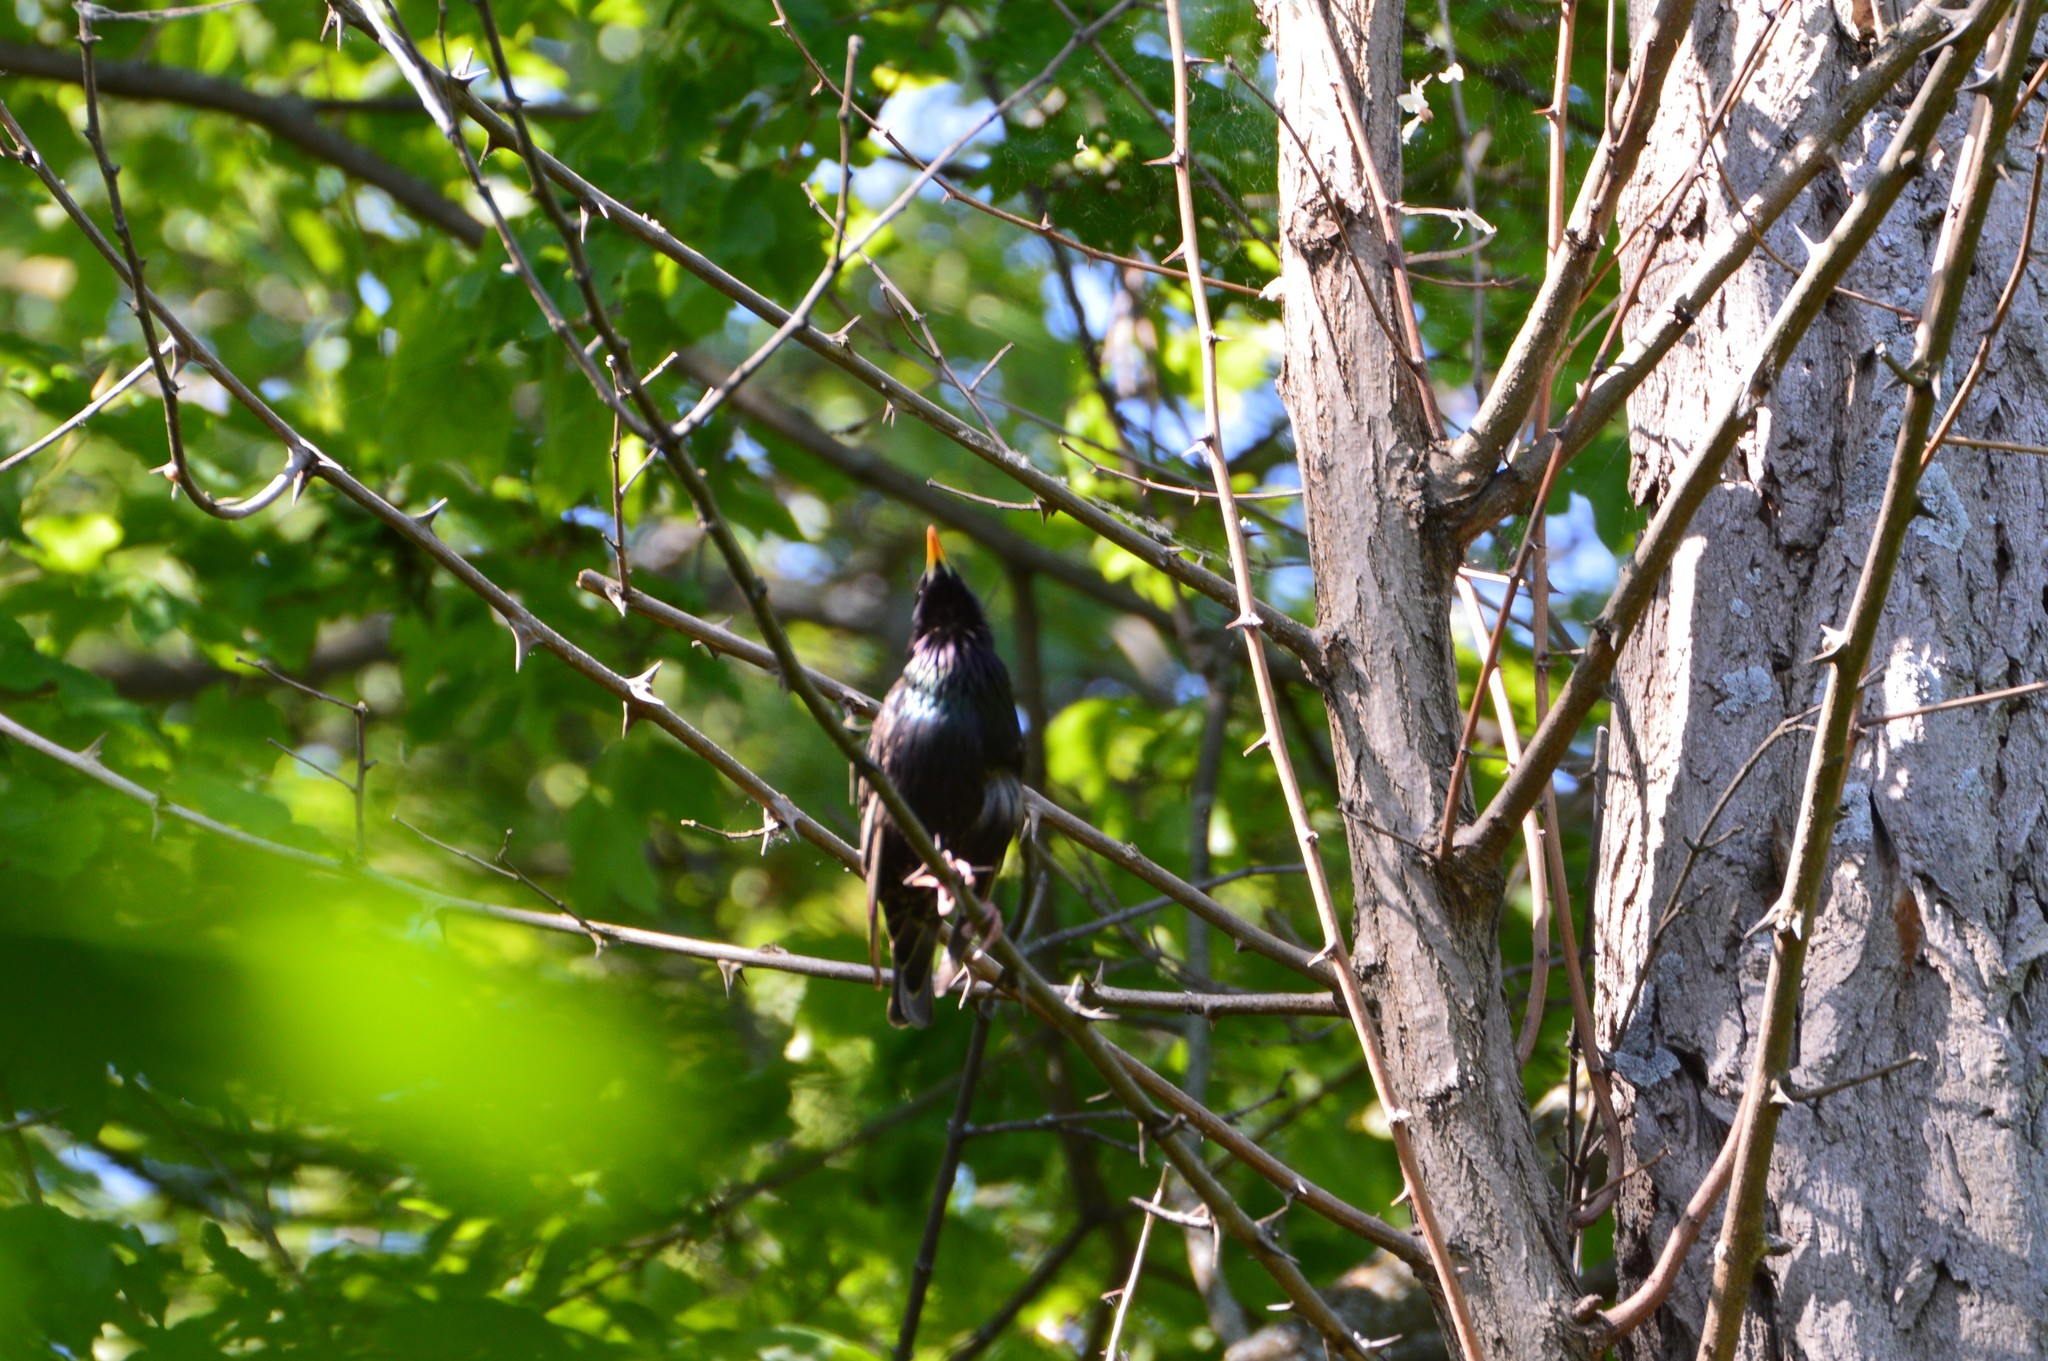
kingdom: Animalia
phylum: Chordata
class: Aves
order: Passeriformes
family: Sturnidae
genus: Sturnus
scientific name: Sturnus vulgaris
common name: Common starling
